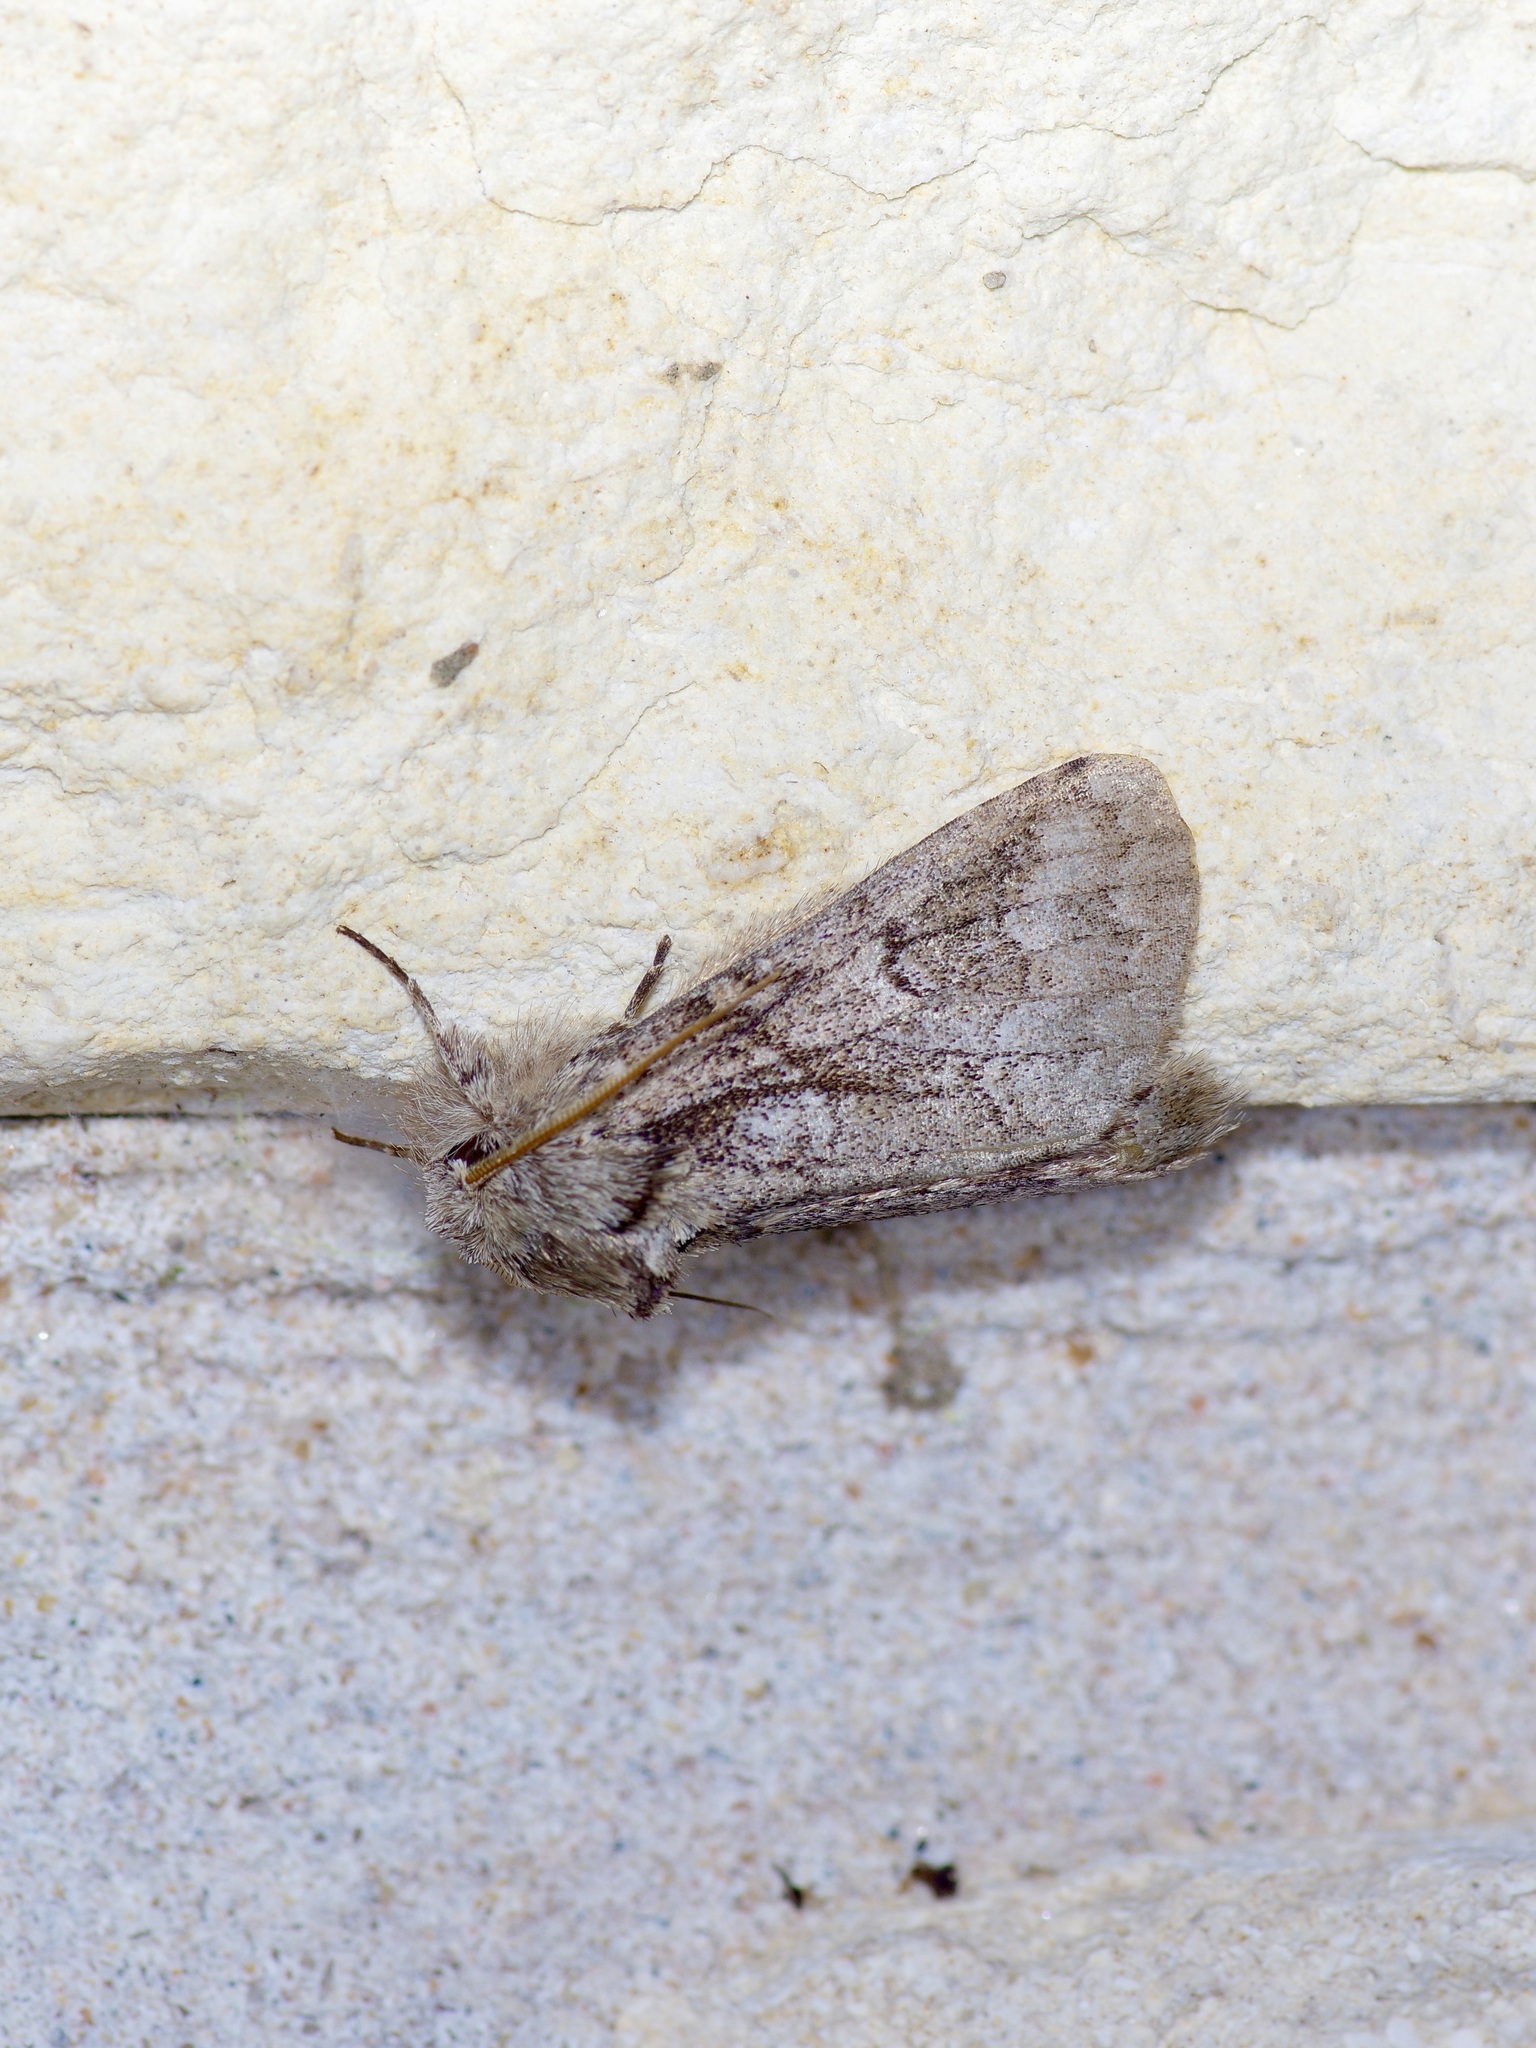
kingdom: Animalia
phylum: Arthropoda
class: Insecta
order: Lepidoptera
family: Notodontidae
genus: Lochmaeus
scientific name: Lochmaeus bilineata
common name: Double-lined prominent
